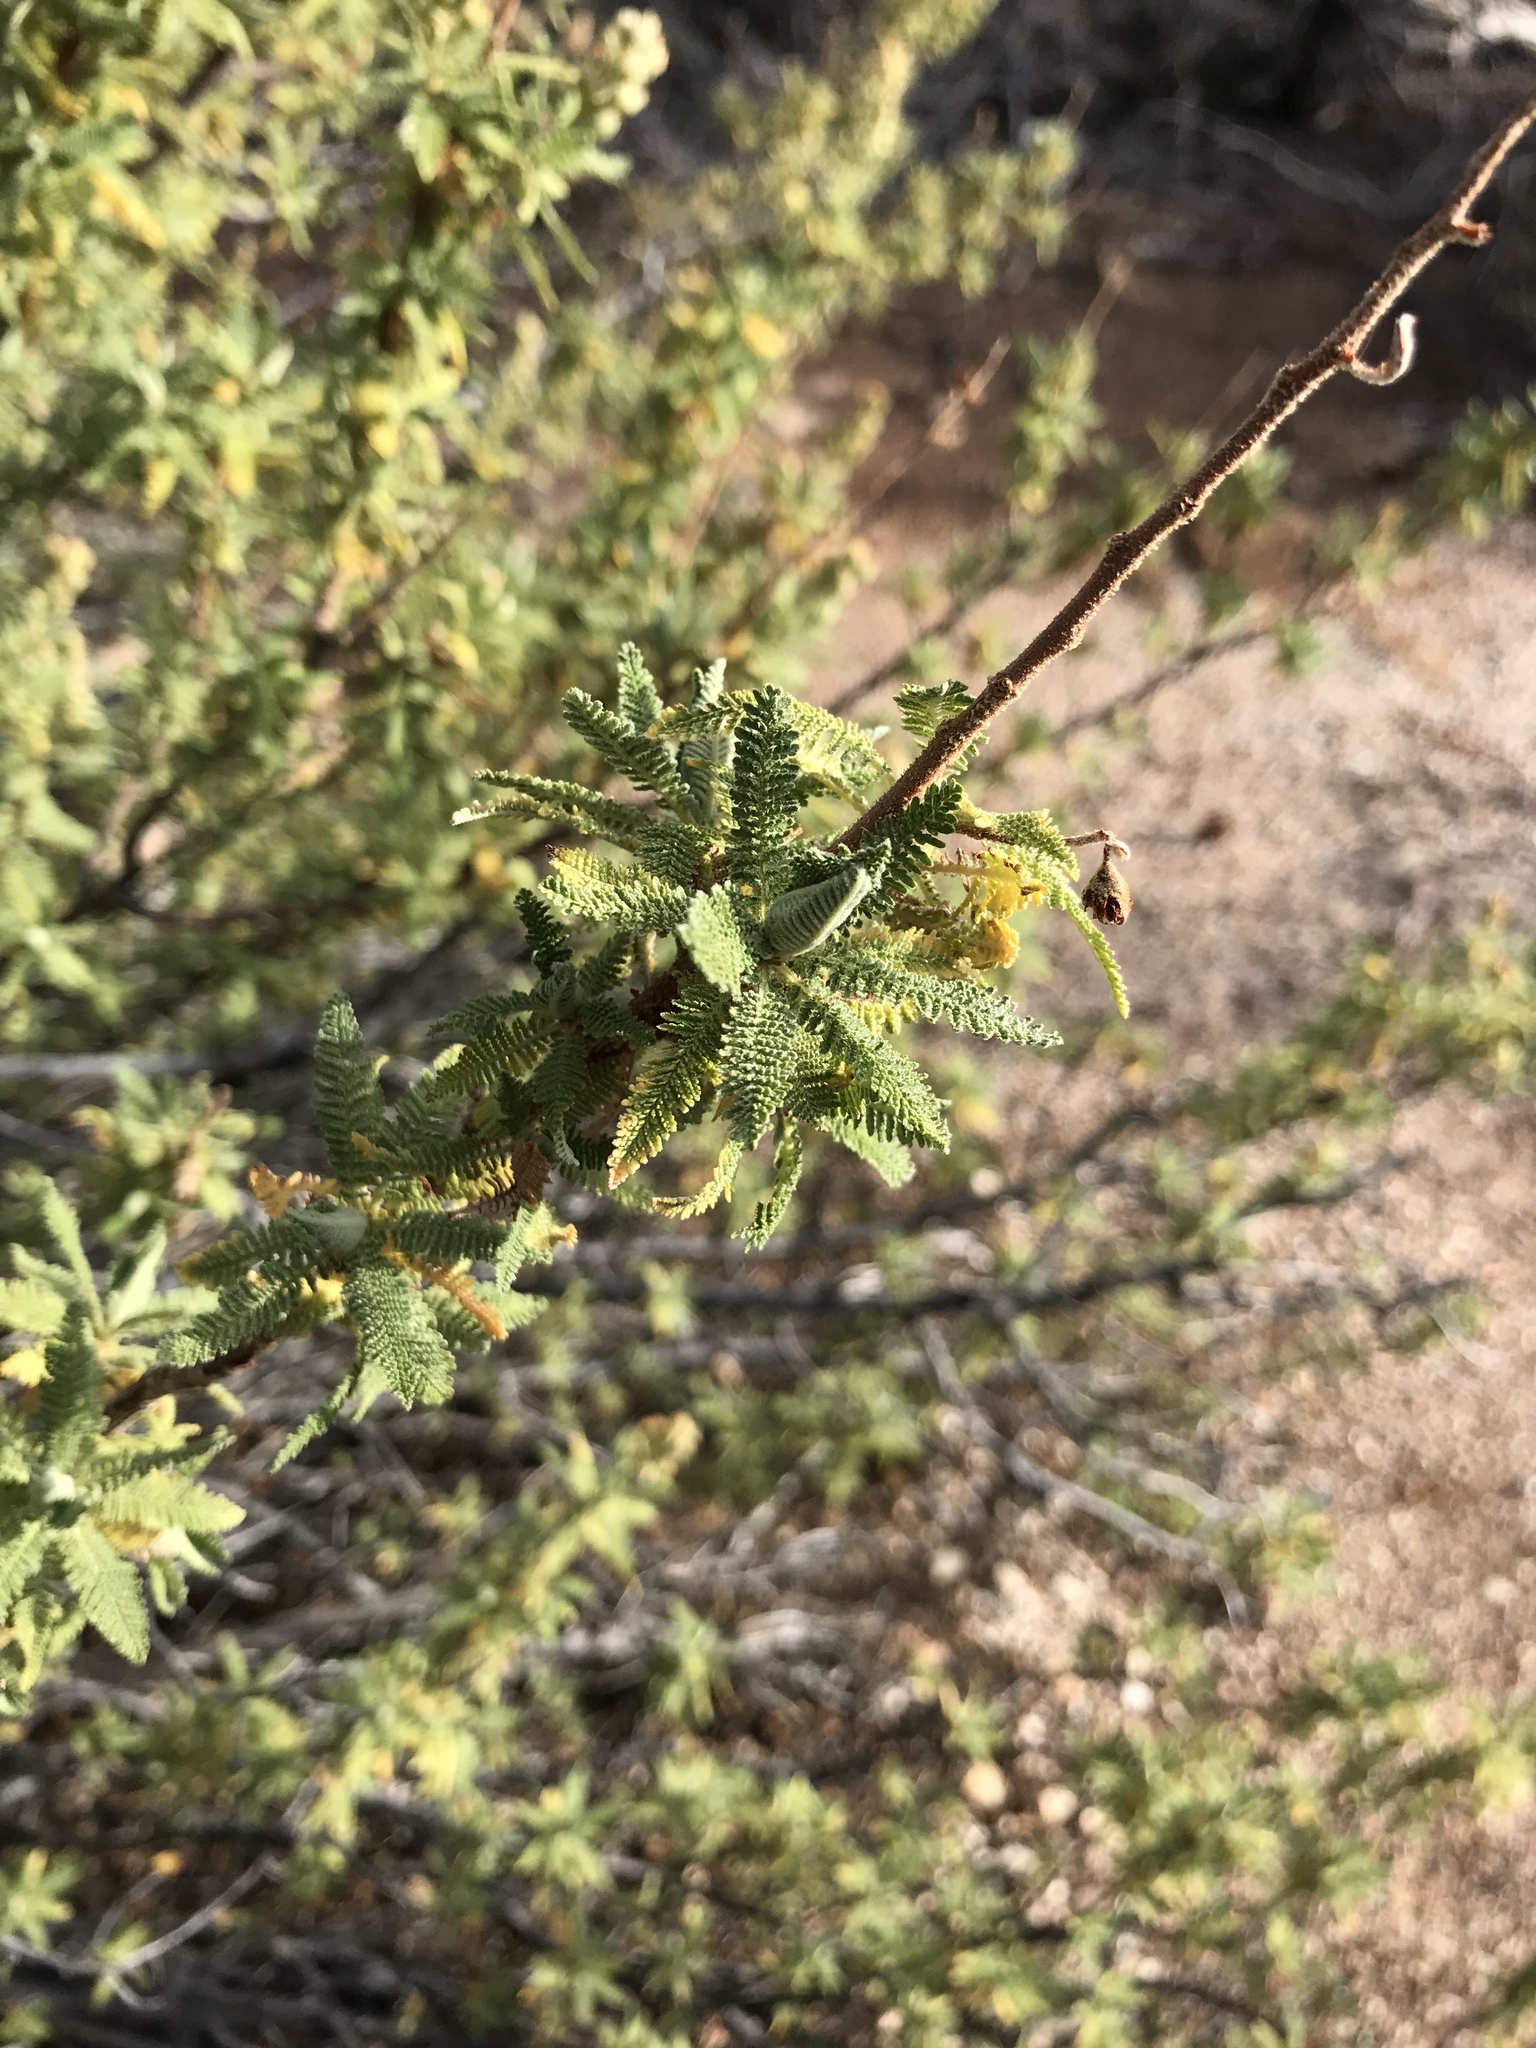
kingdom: Plantae
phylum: Tracheophyta
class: Magnoliopsida
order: Rosales
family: Rosaceae
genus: Chamaebatiaria
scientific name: Chamaebatiaria millefolium
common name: Fernbush
